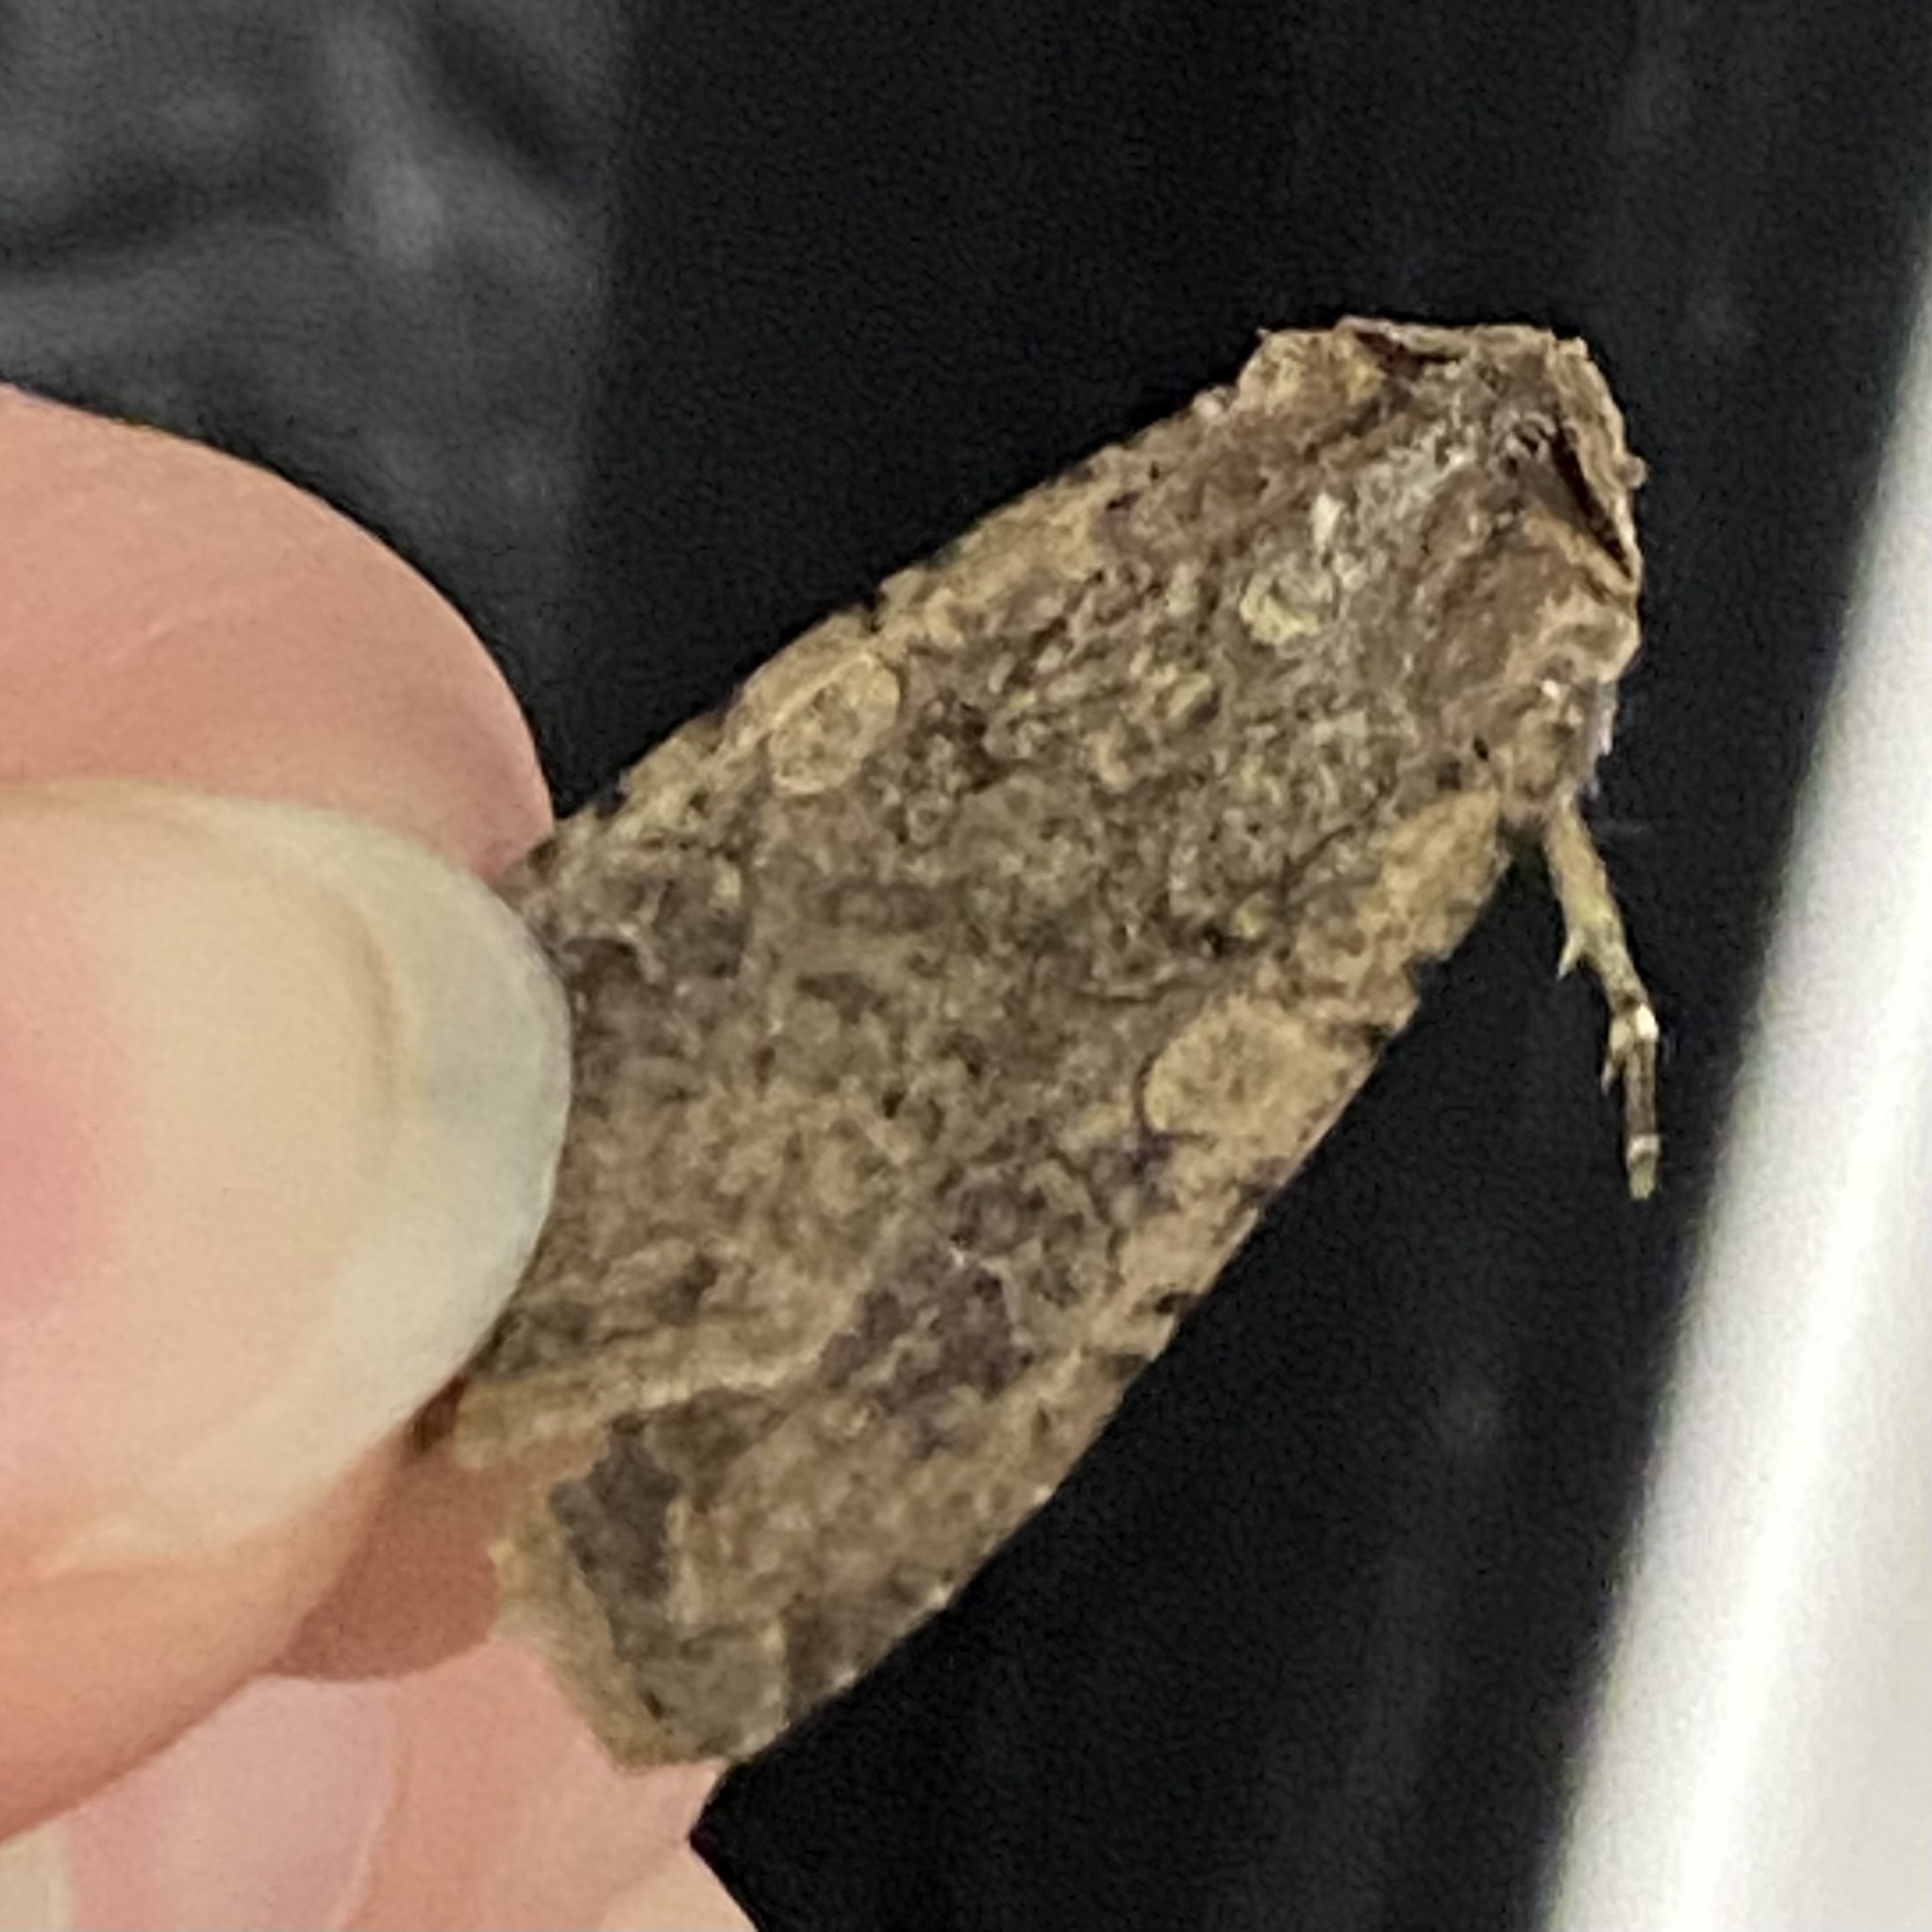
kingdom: Animalia
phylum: Arthropoda
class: Insecta
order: Lepidoptera
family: Noctuidae
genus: Peridroma
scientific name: Peridroma saucia
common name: Pearly underwing
